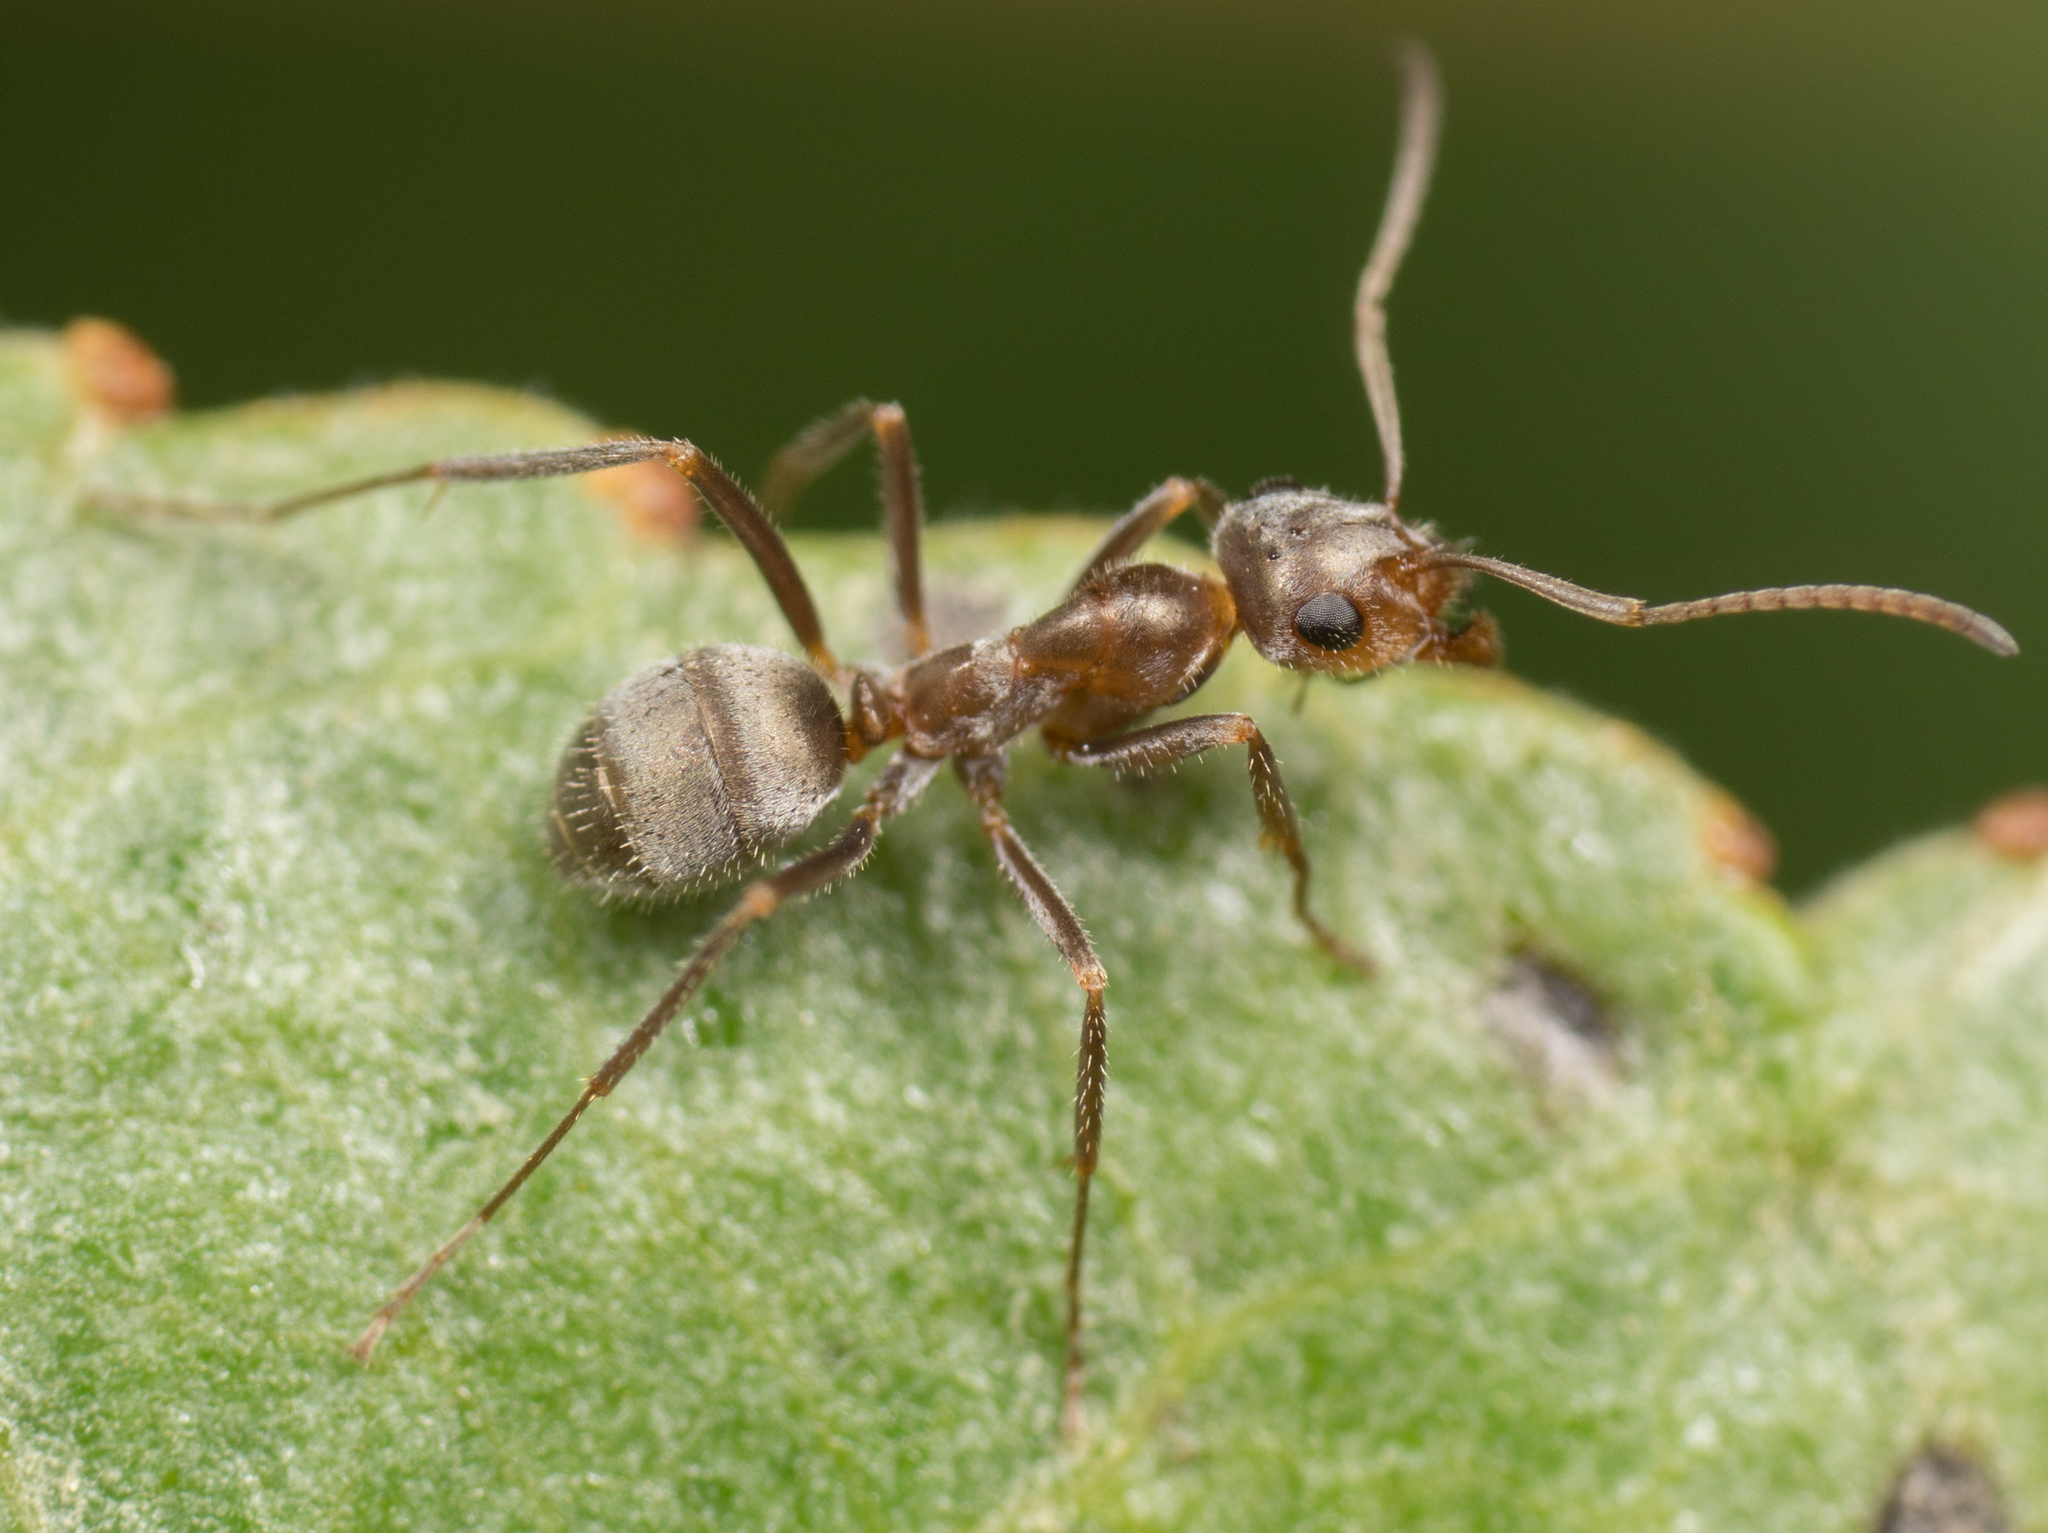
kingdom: Animalia
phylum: Arthropoda
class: Insecta
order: Hymenoptera
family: Formicidae
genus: Formica
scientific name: Formica lepida
